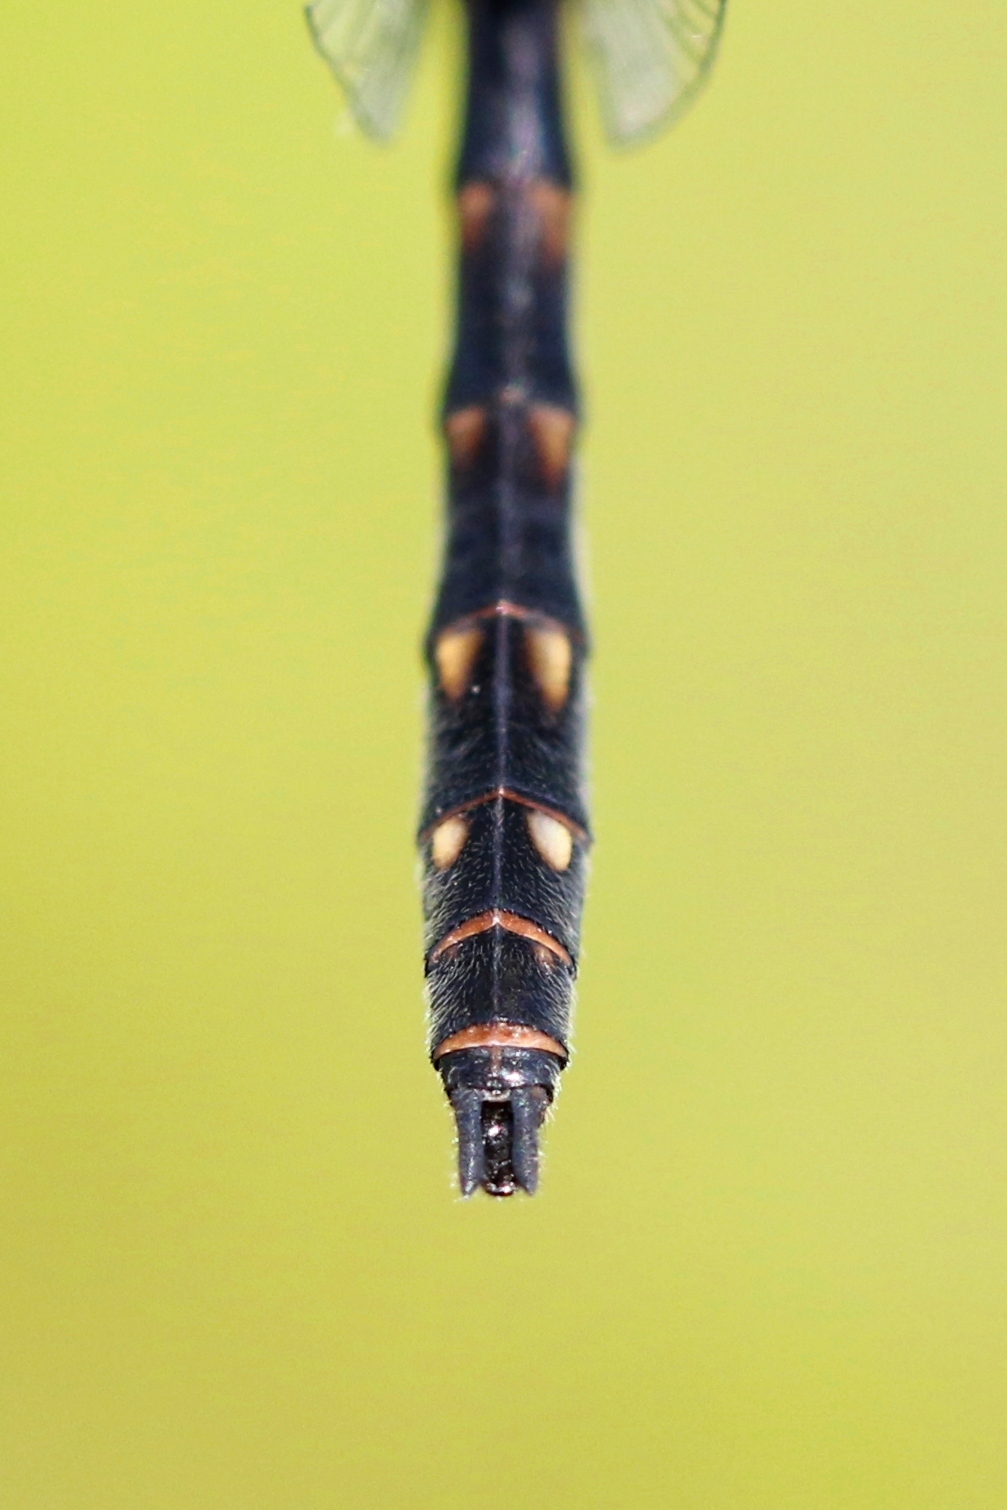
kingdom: Animalia
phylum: Arthropoda
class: Insecta
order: Odonata
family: Libellulidae
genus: Sympetrum
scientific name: Sympetrum danae
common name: Black darter
